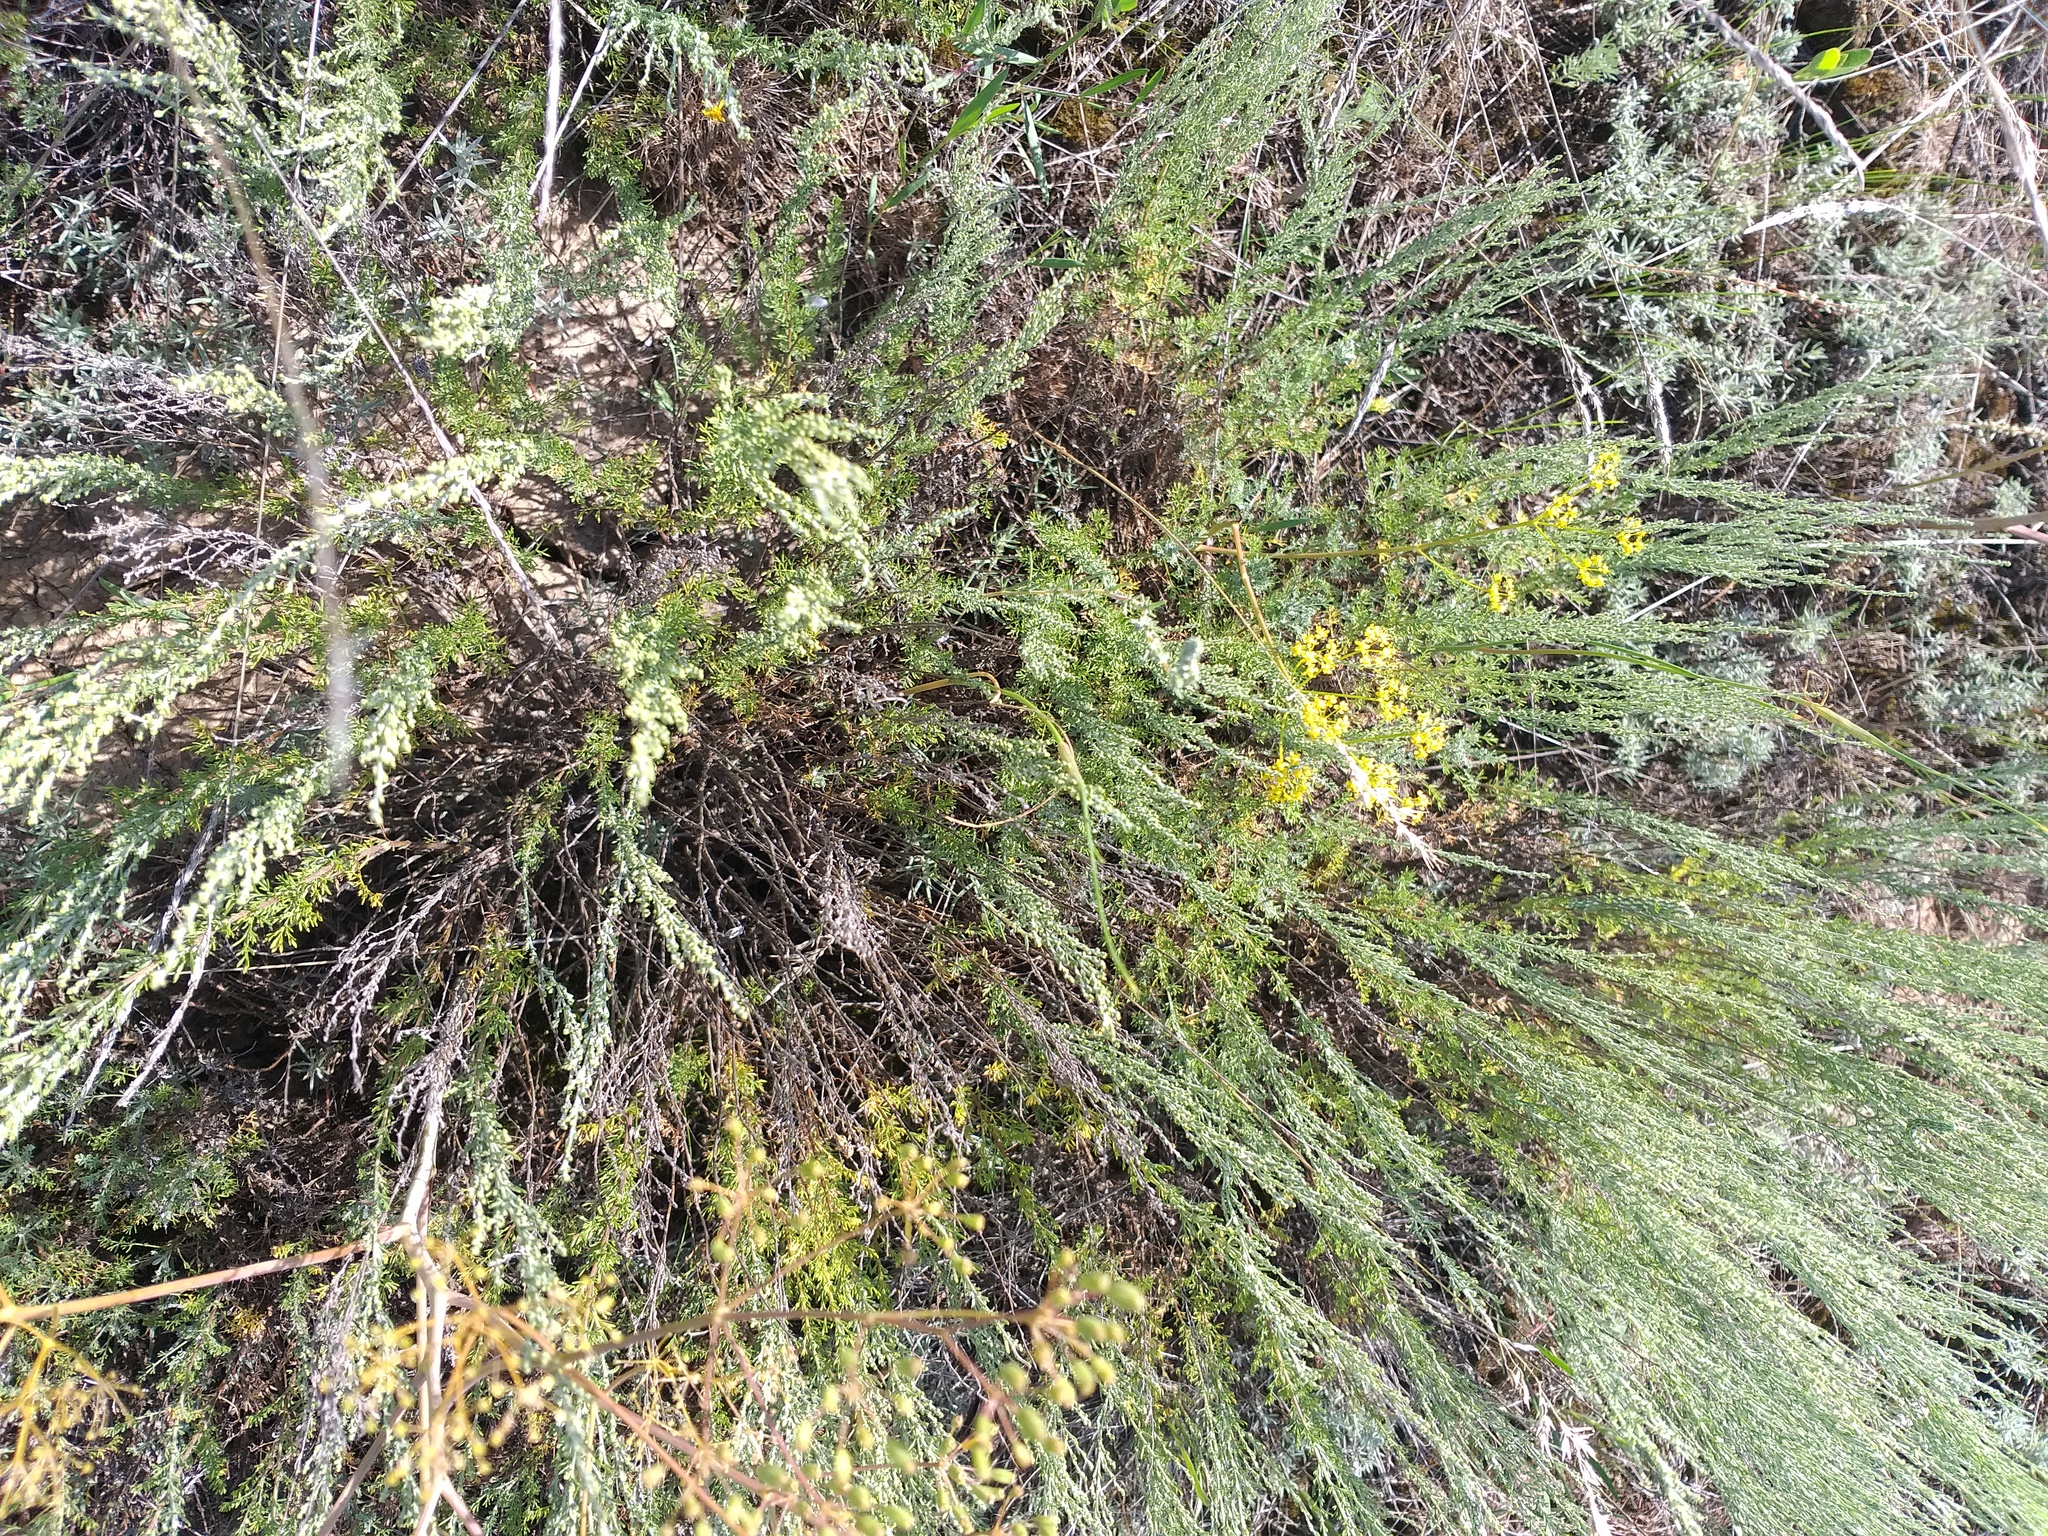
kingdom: Plantae
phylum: Tracheophyta
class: Magnoliopsida
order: Asterales
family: Asteraceae
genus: Artemisia
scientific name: Artemisia pauciflora
